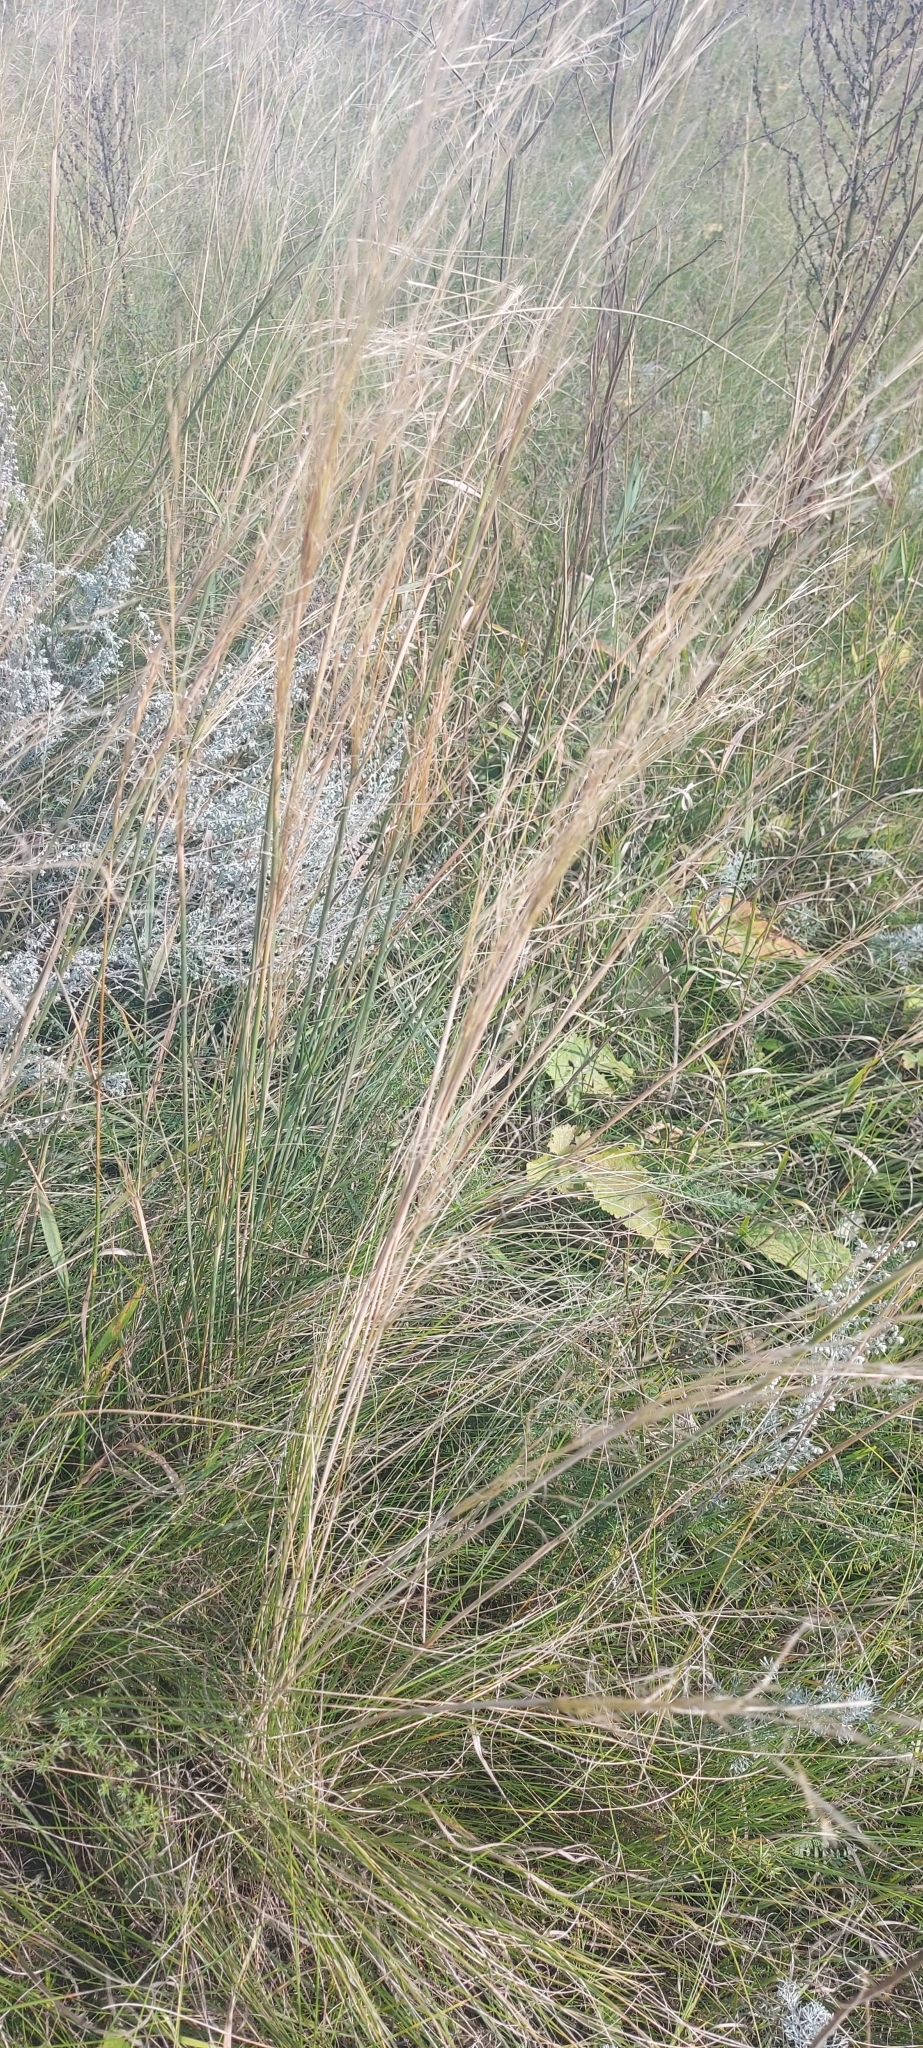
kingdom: Plantae
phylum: Tracheophyta
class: Liliopsida
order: Poales
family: Poaceae
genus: Stipa
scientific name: Stipa capillata
